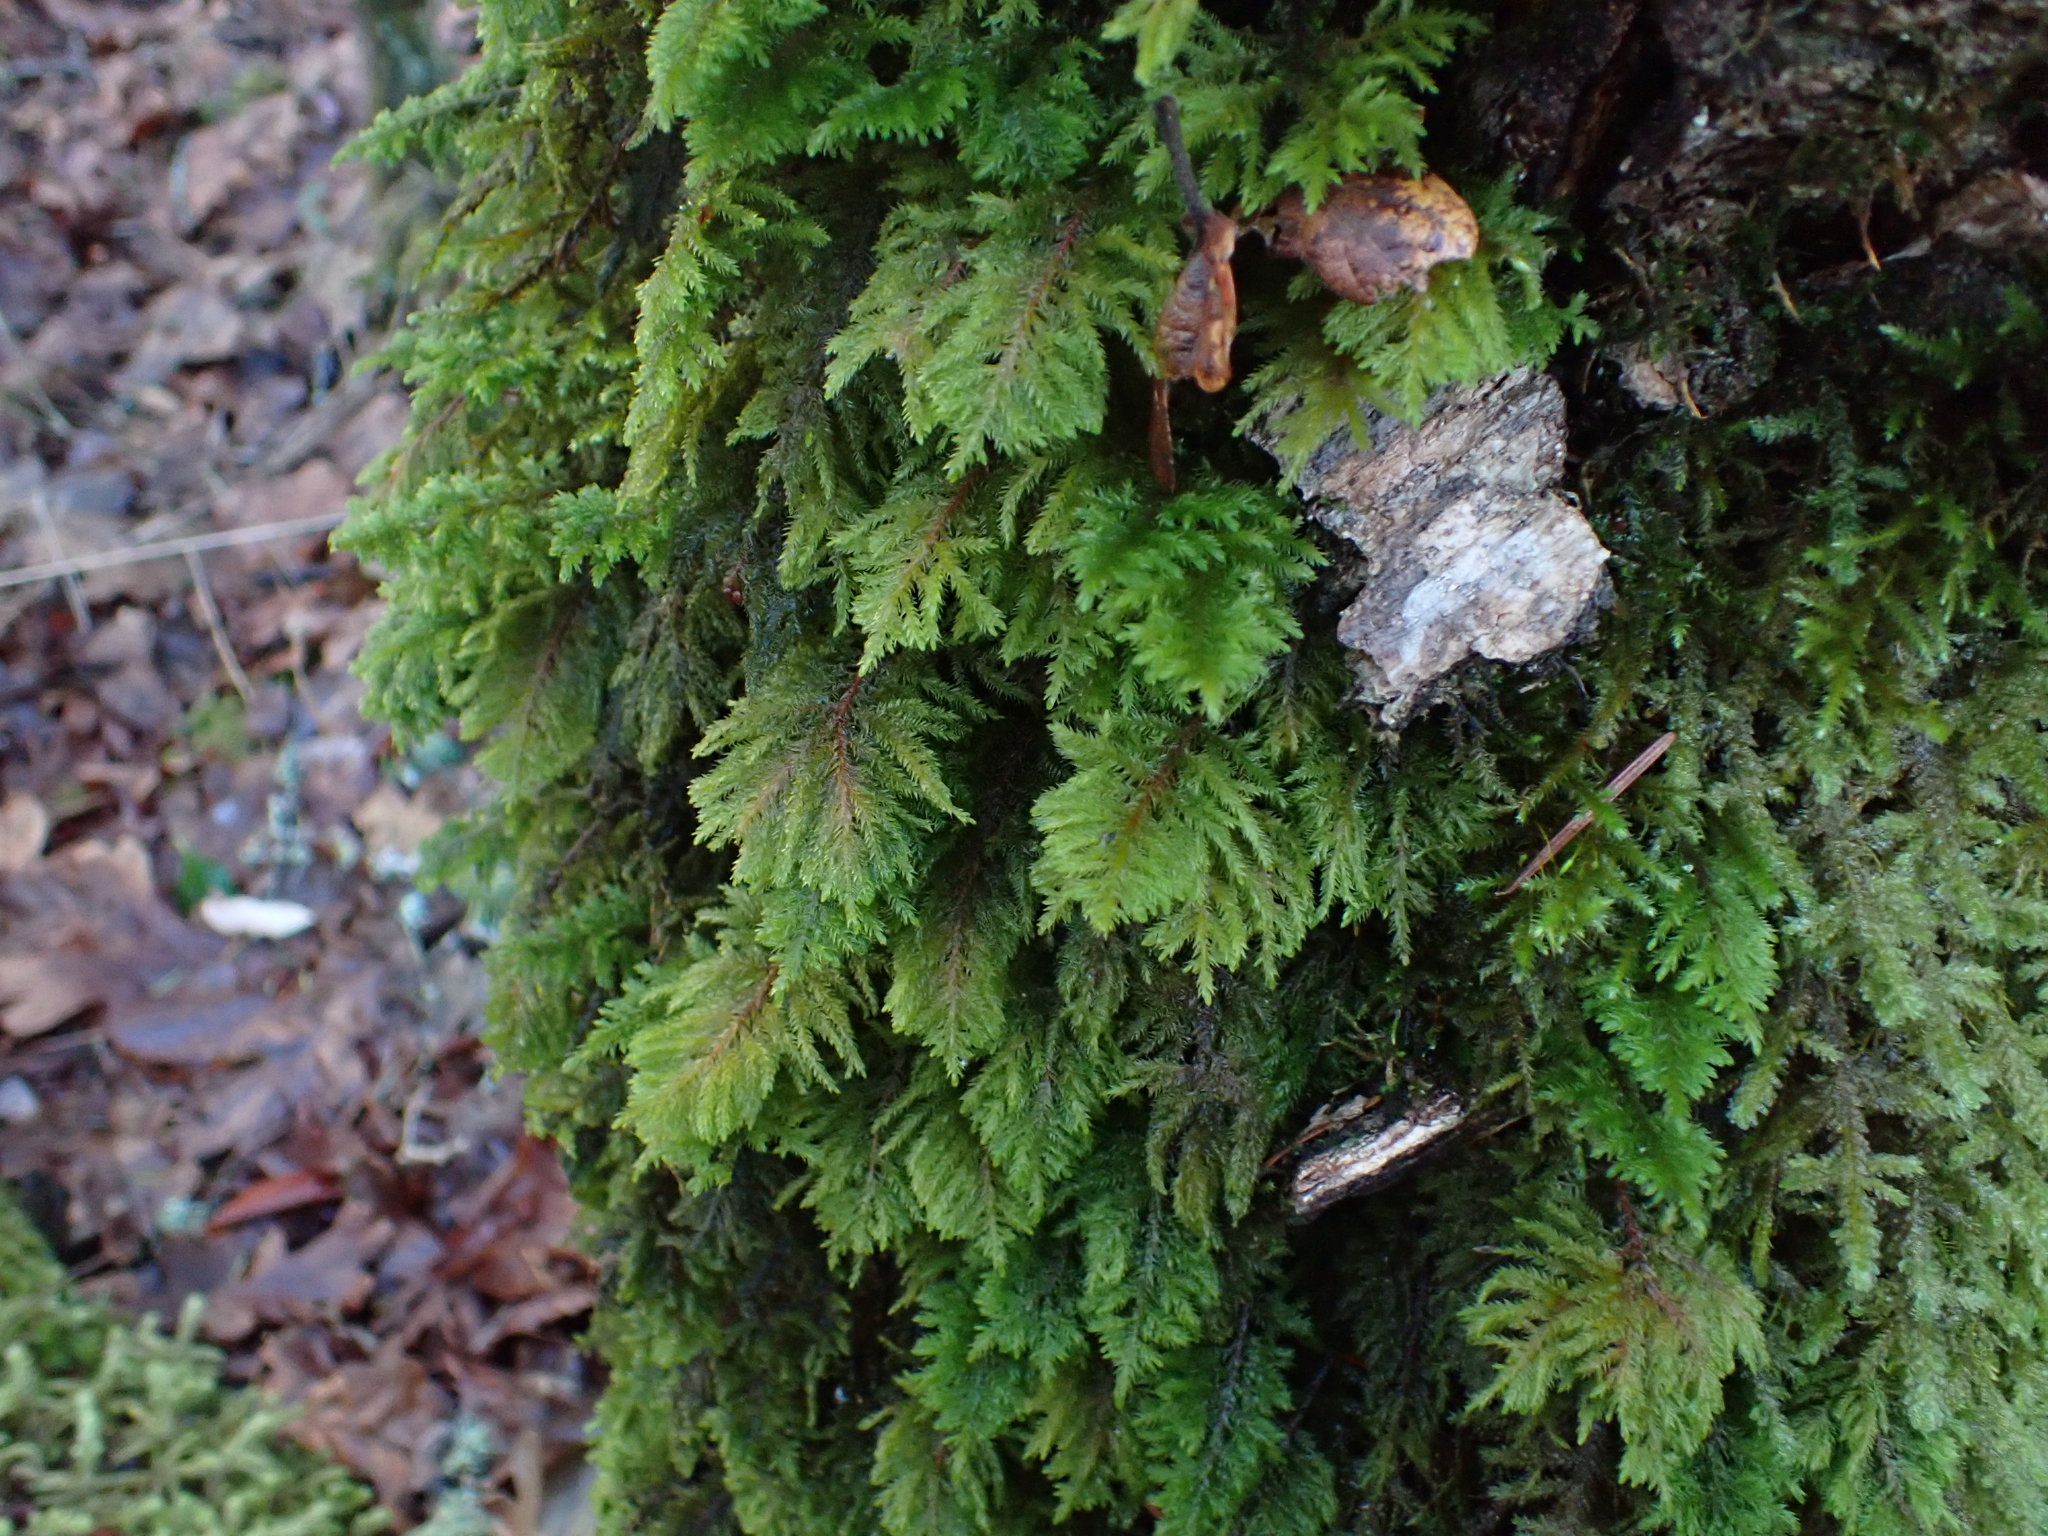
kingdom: Plantae
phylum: Bryophyta
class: Bryopsida
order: Hypnales
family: Cryphaeaceae
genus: Dendroalsia
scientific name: Dendroalsia abietina
